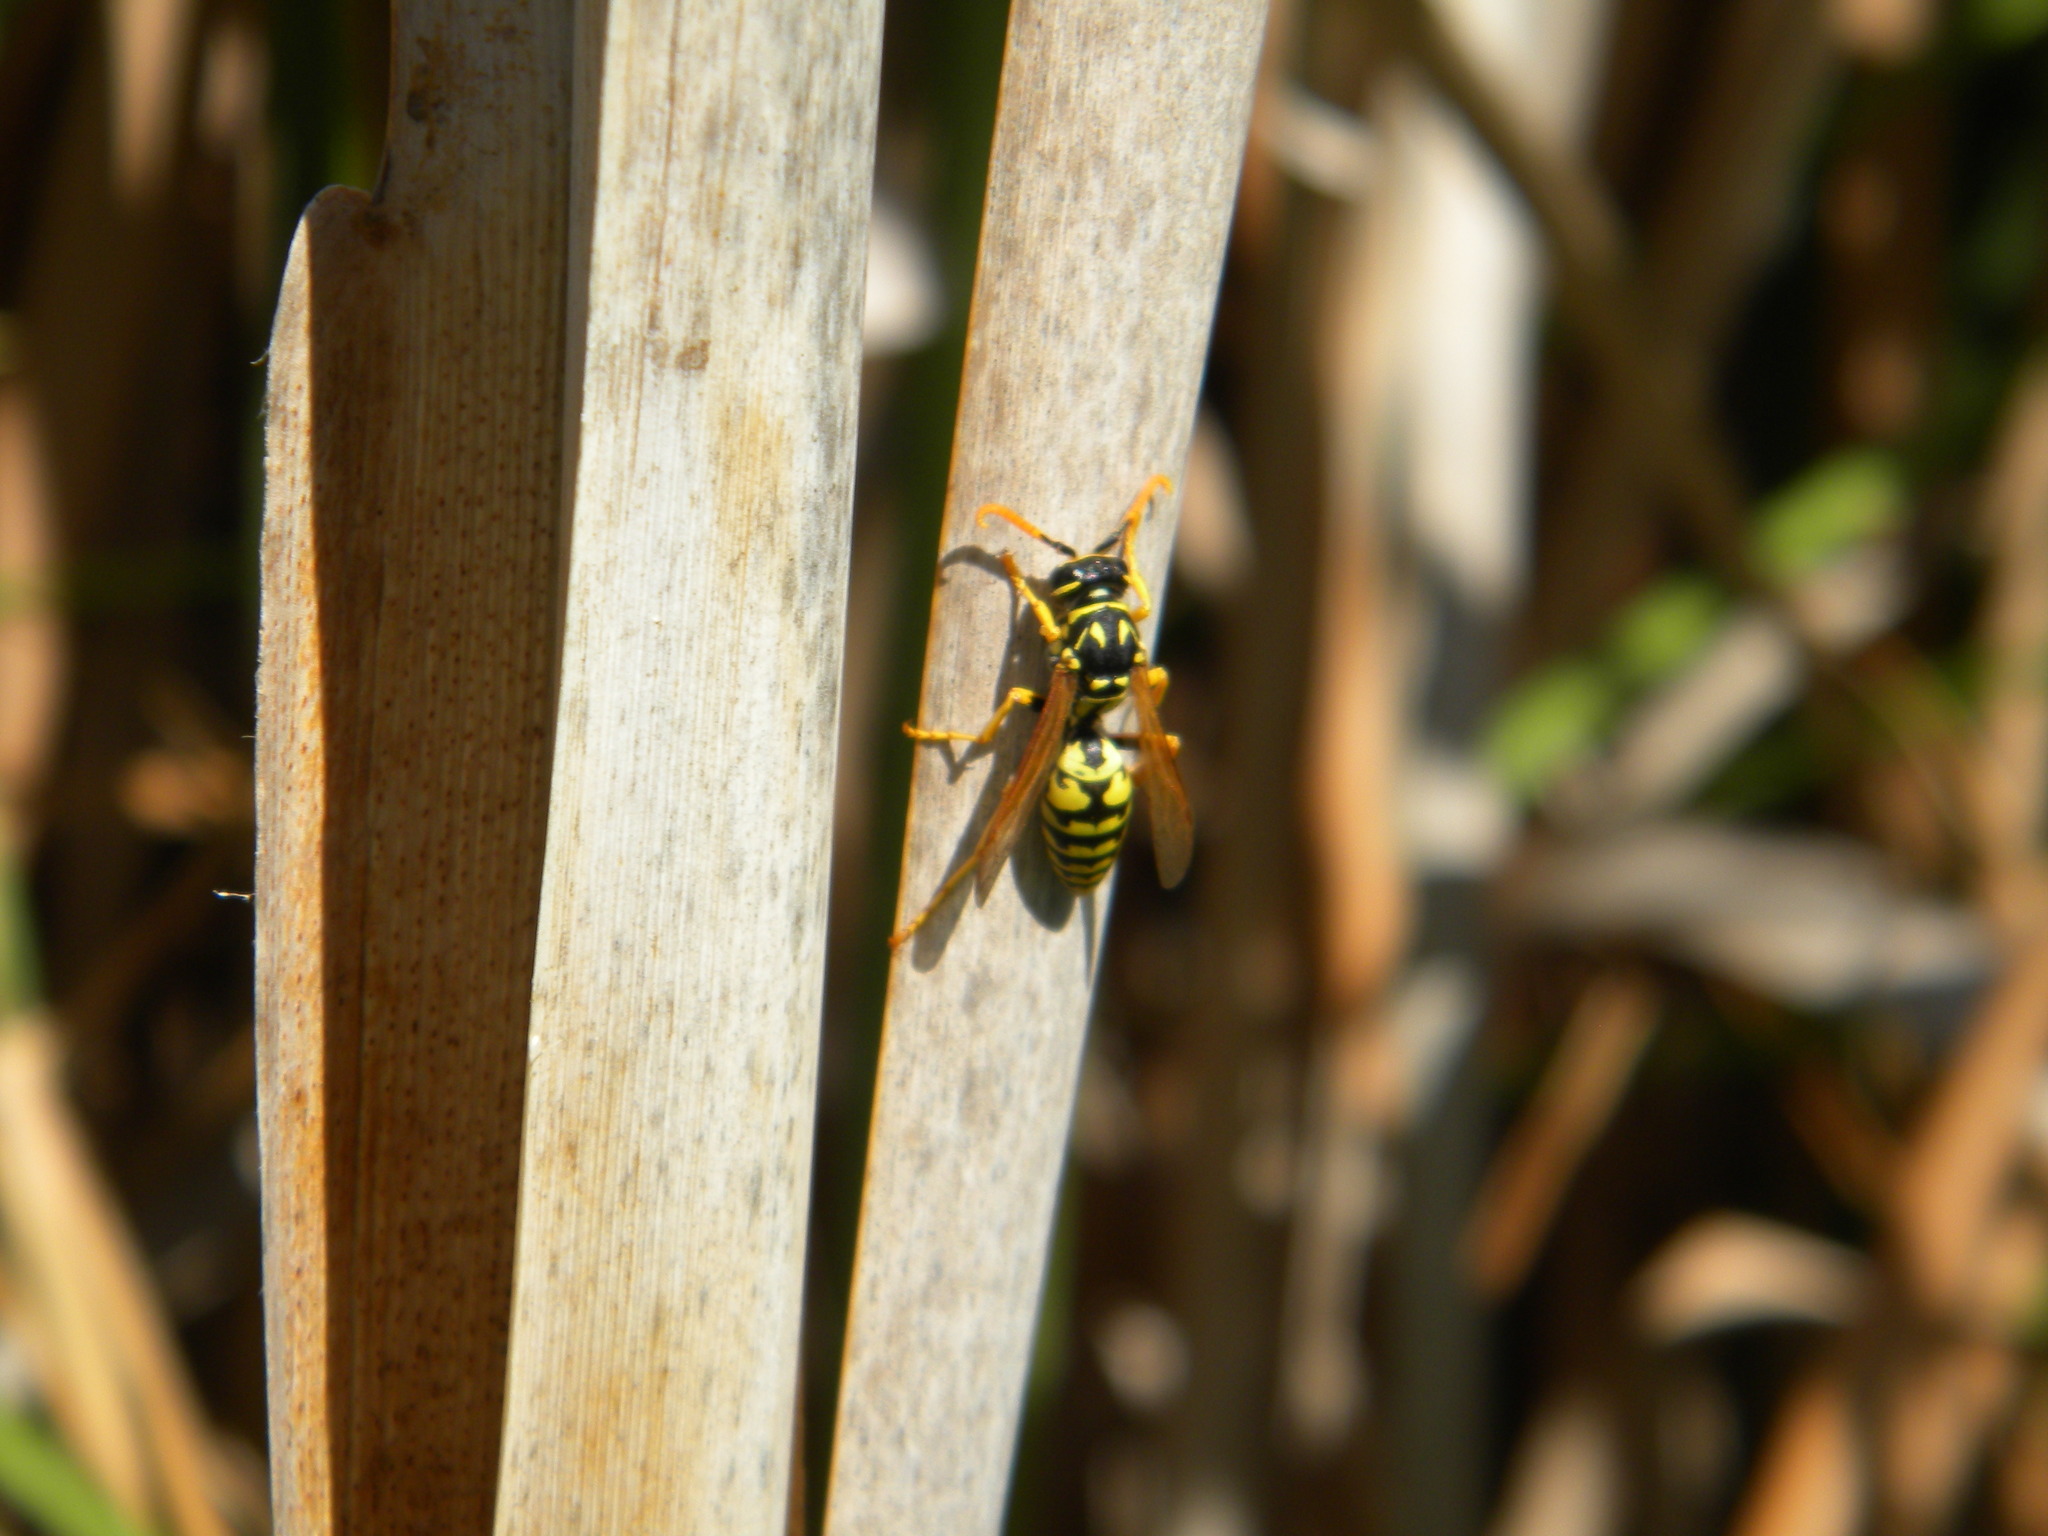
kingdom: Animalia
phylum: Arthropoda
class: Insecta
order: Hymenoptera
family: Eumenidae
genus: Polistes
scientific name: Polistes dominula
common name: Paper wasp
